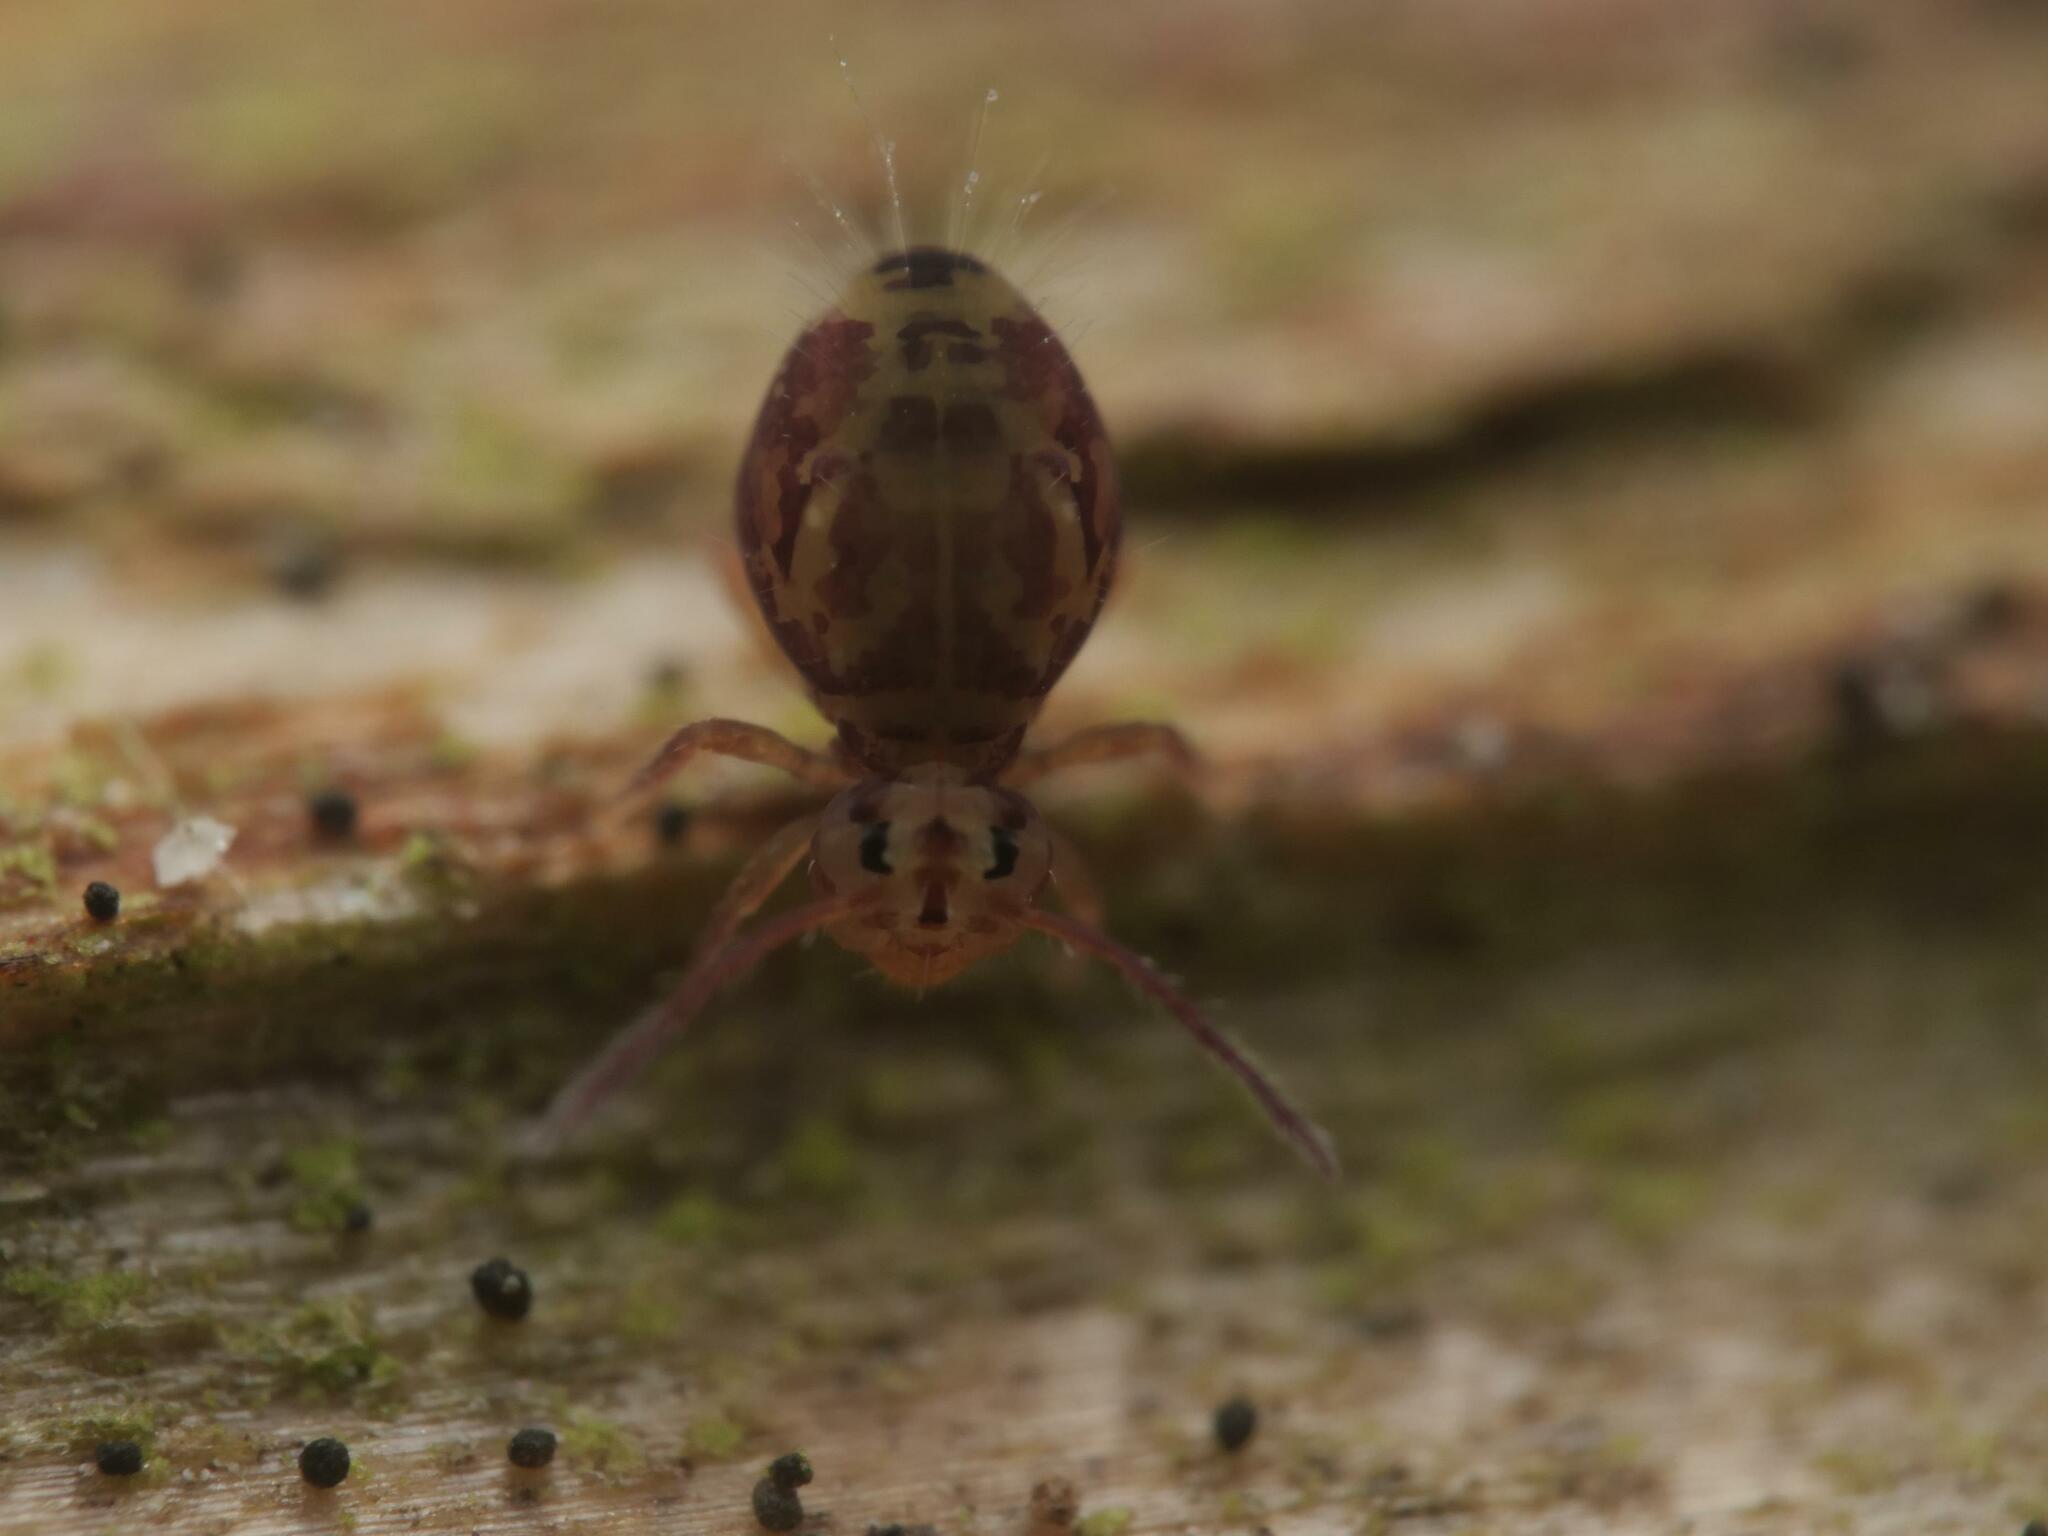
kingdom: Animalia
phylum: Arthropoda
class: Collembola
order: Symphypleona
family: Dicyrtomidae
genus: Dicyrtomina
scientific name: Dicyrtomina ornata
